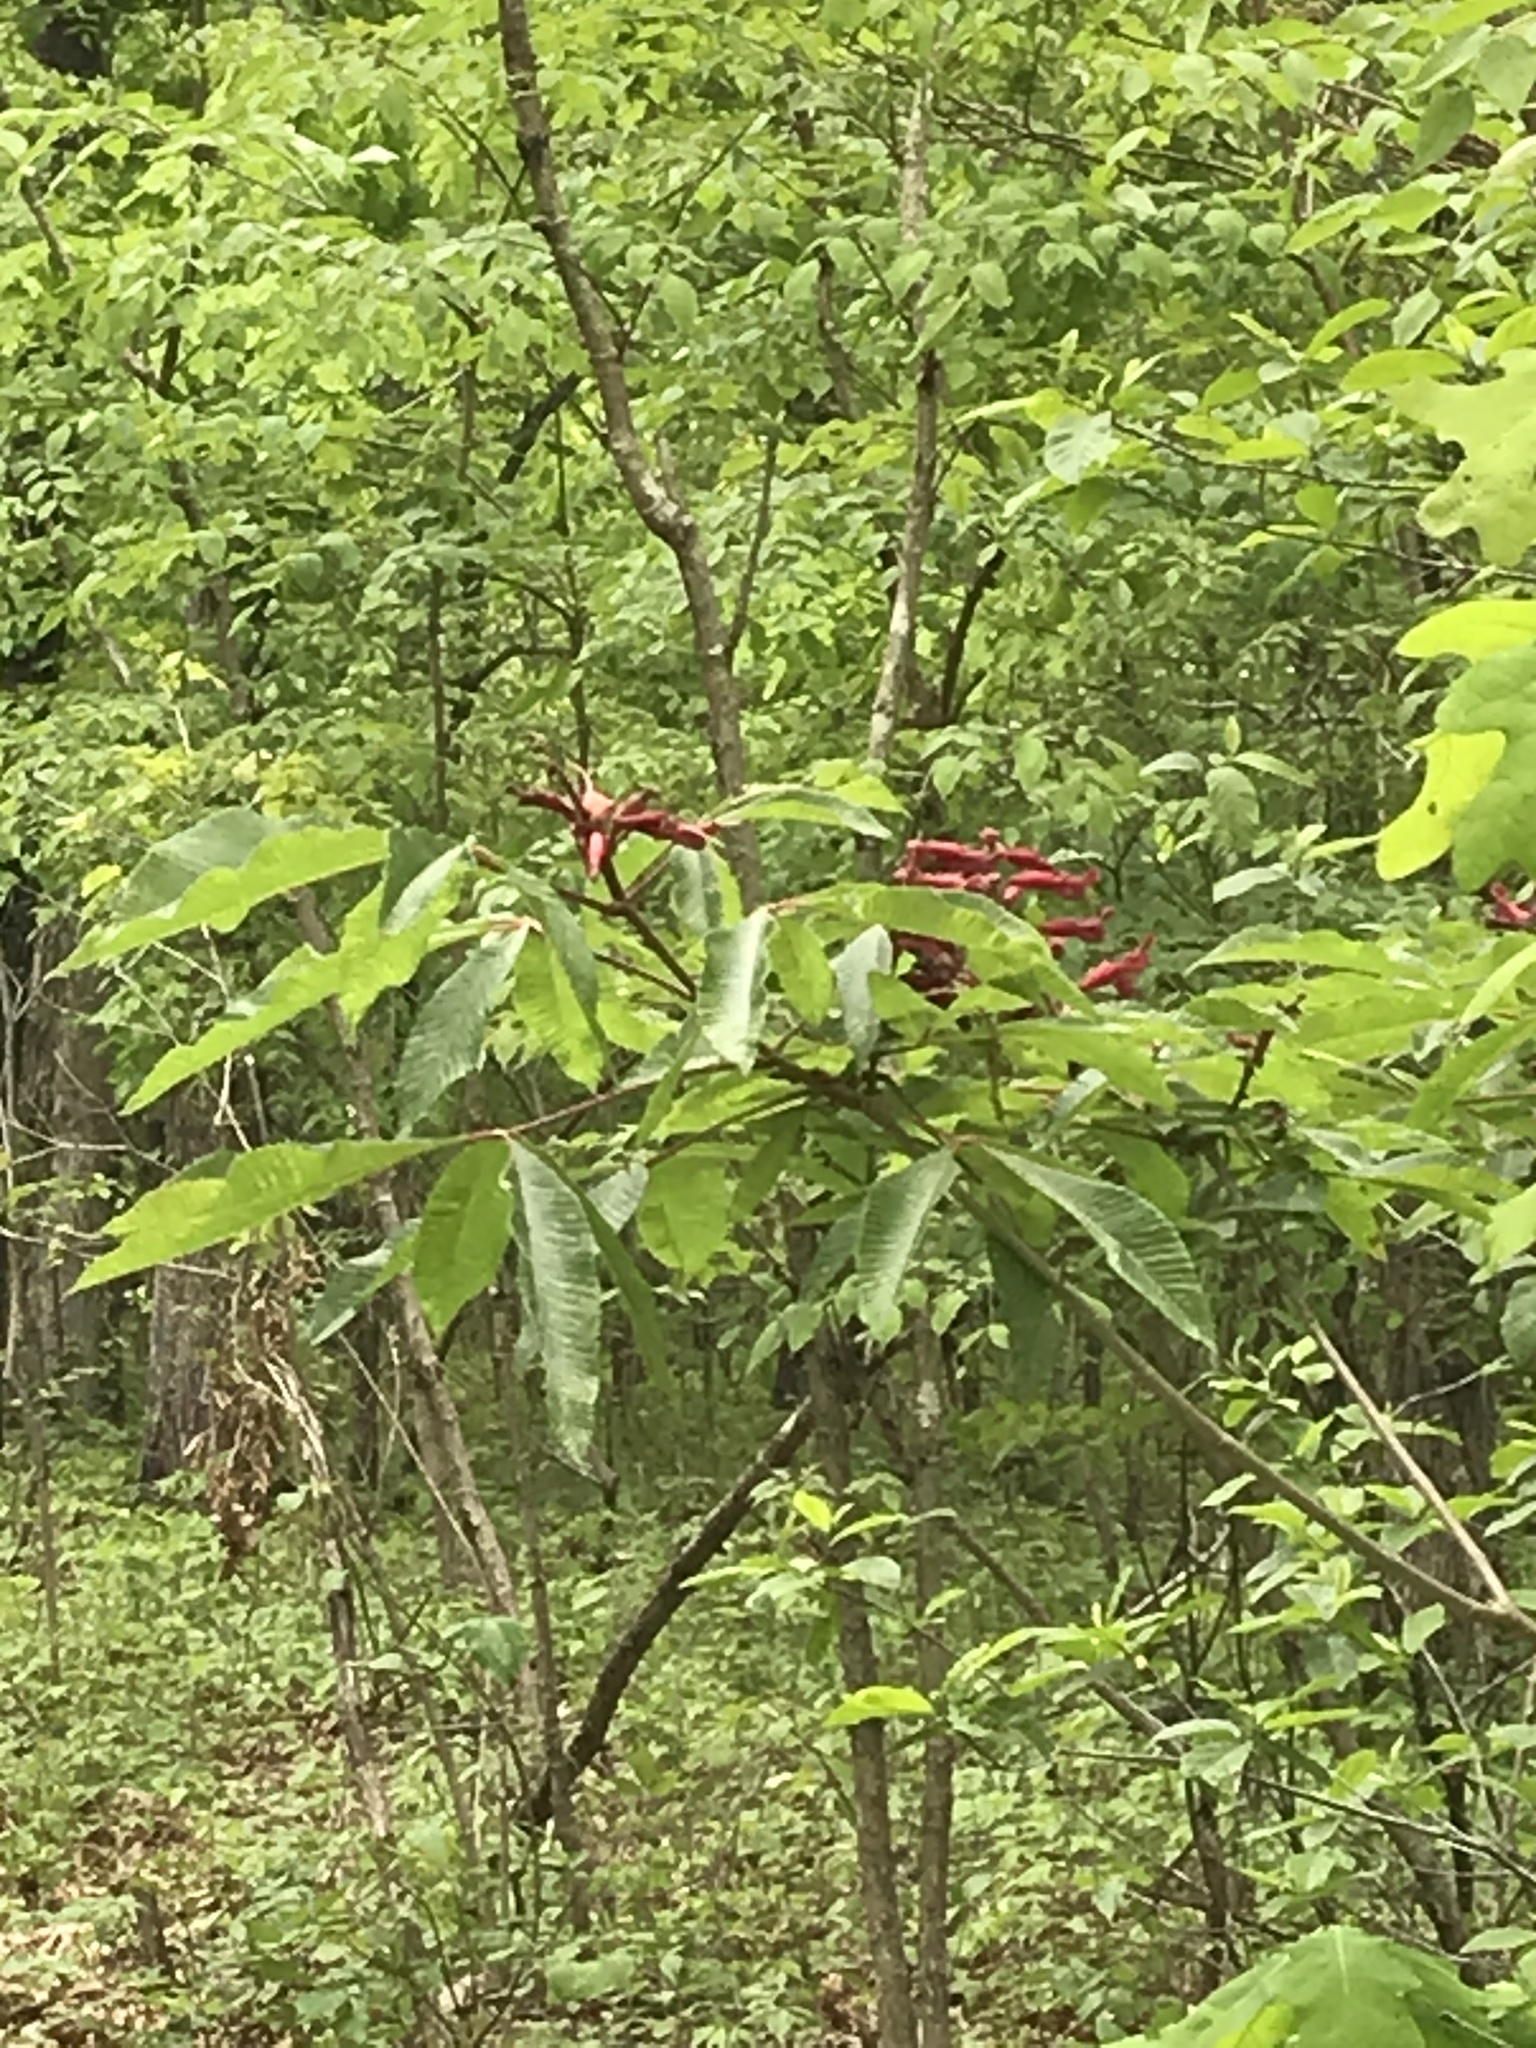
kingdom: Plantae
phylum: Tracheophyta
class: Magnoliopsida
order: Sapindales
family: Sapindaceae
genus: Aesculus
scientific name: Aesculus pavia
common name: Red buckeye
